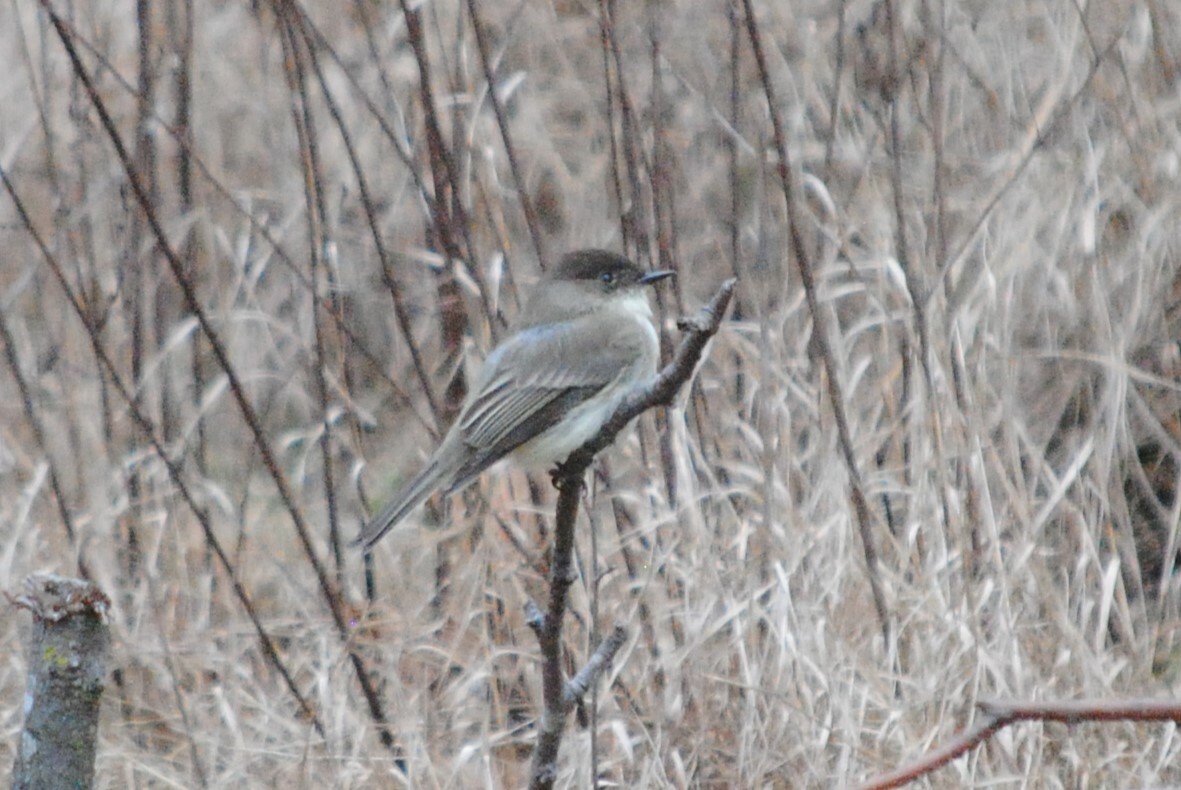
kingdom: Animalia
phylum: Chordata
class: Aves
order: Passeriformes
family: Tyrannidae
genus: Sayornis
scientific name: Sayornis phoebe
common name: Eastern phoebe
